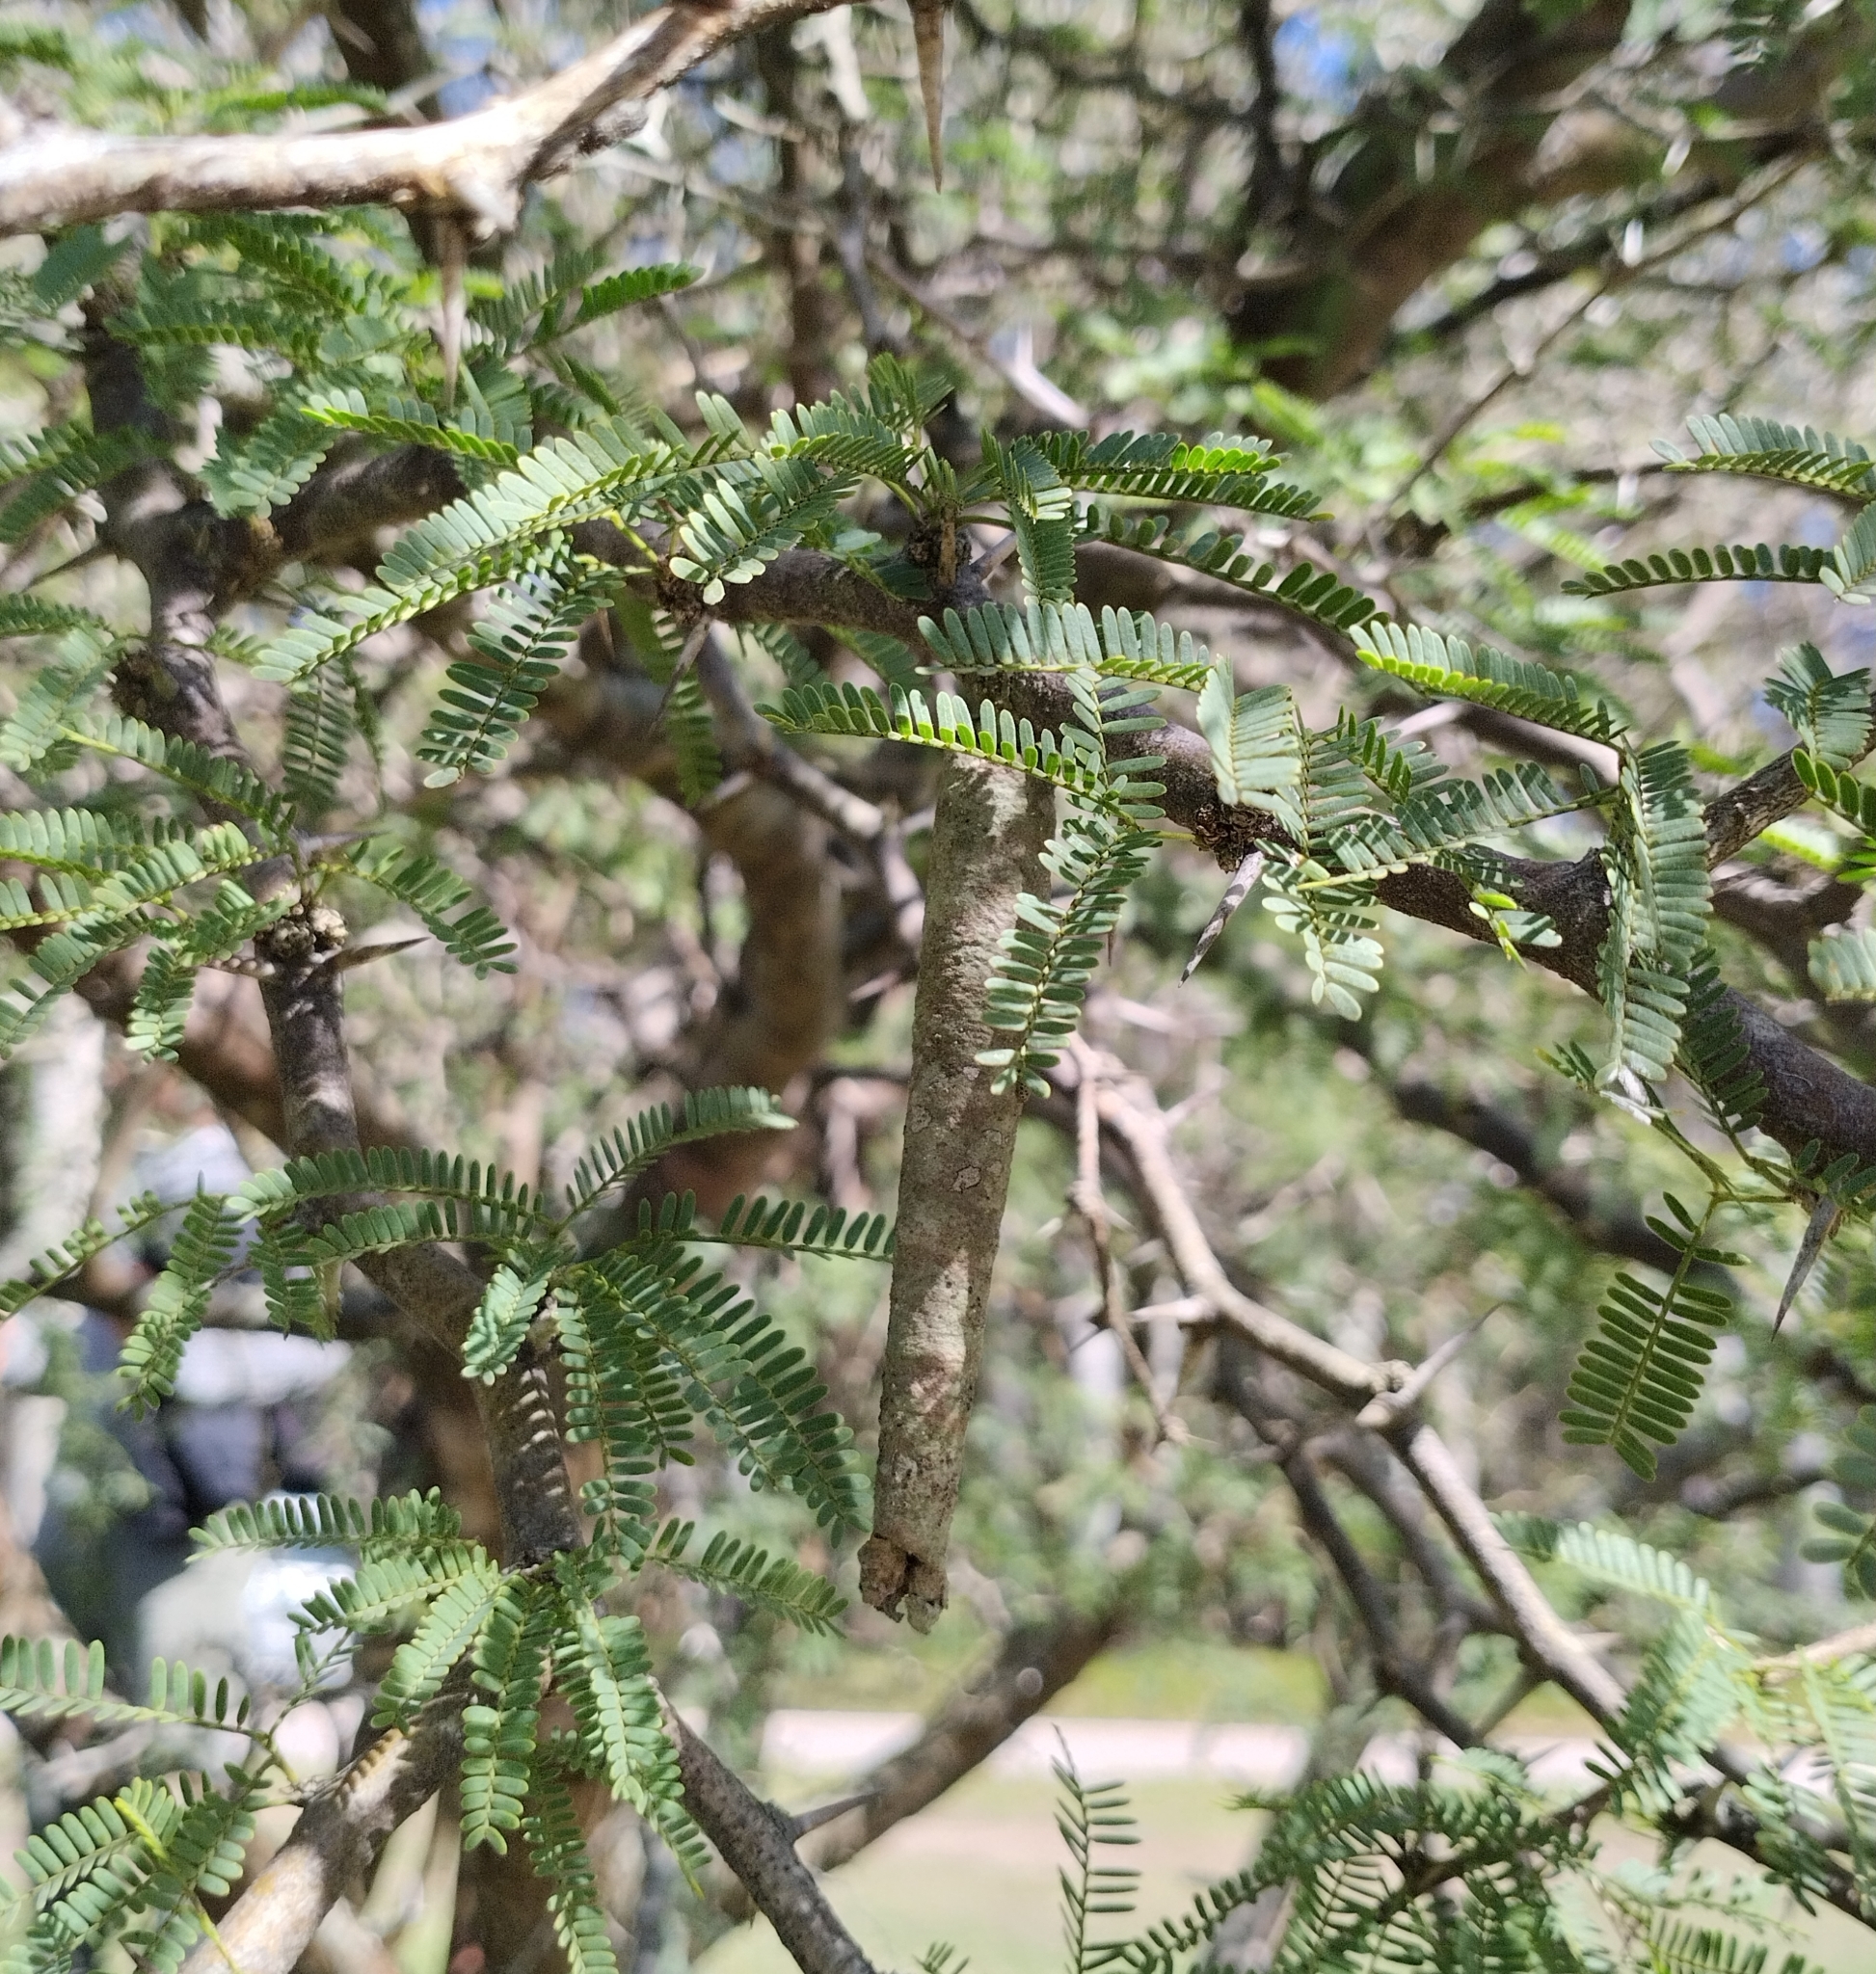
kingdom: Animalia
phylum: Arthropoda
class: Insecta
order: Lepidoptera
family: Psychidae
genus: Oiketicus
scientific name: Oiketicus geyeri
